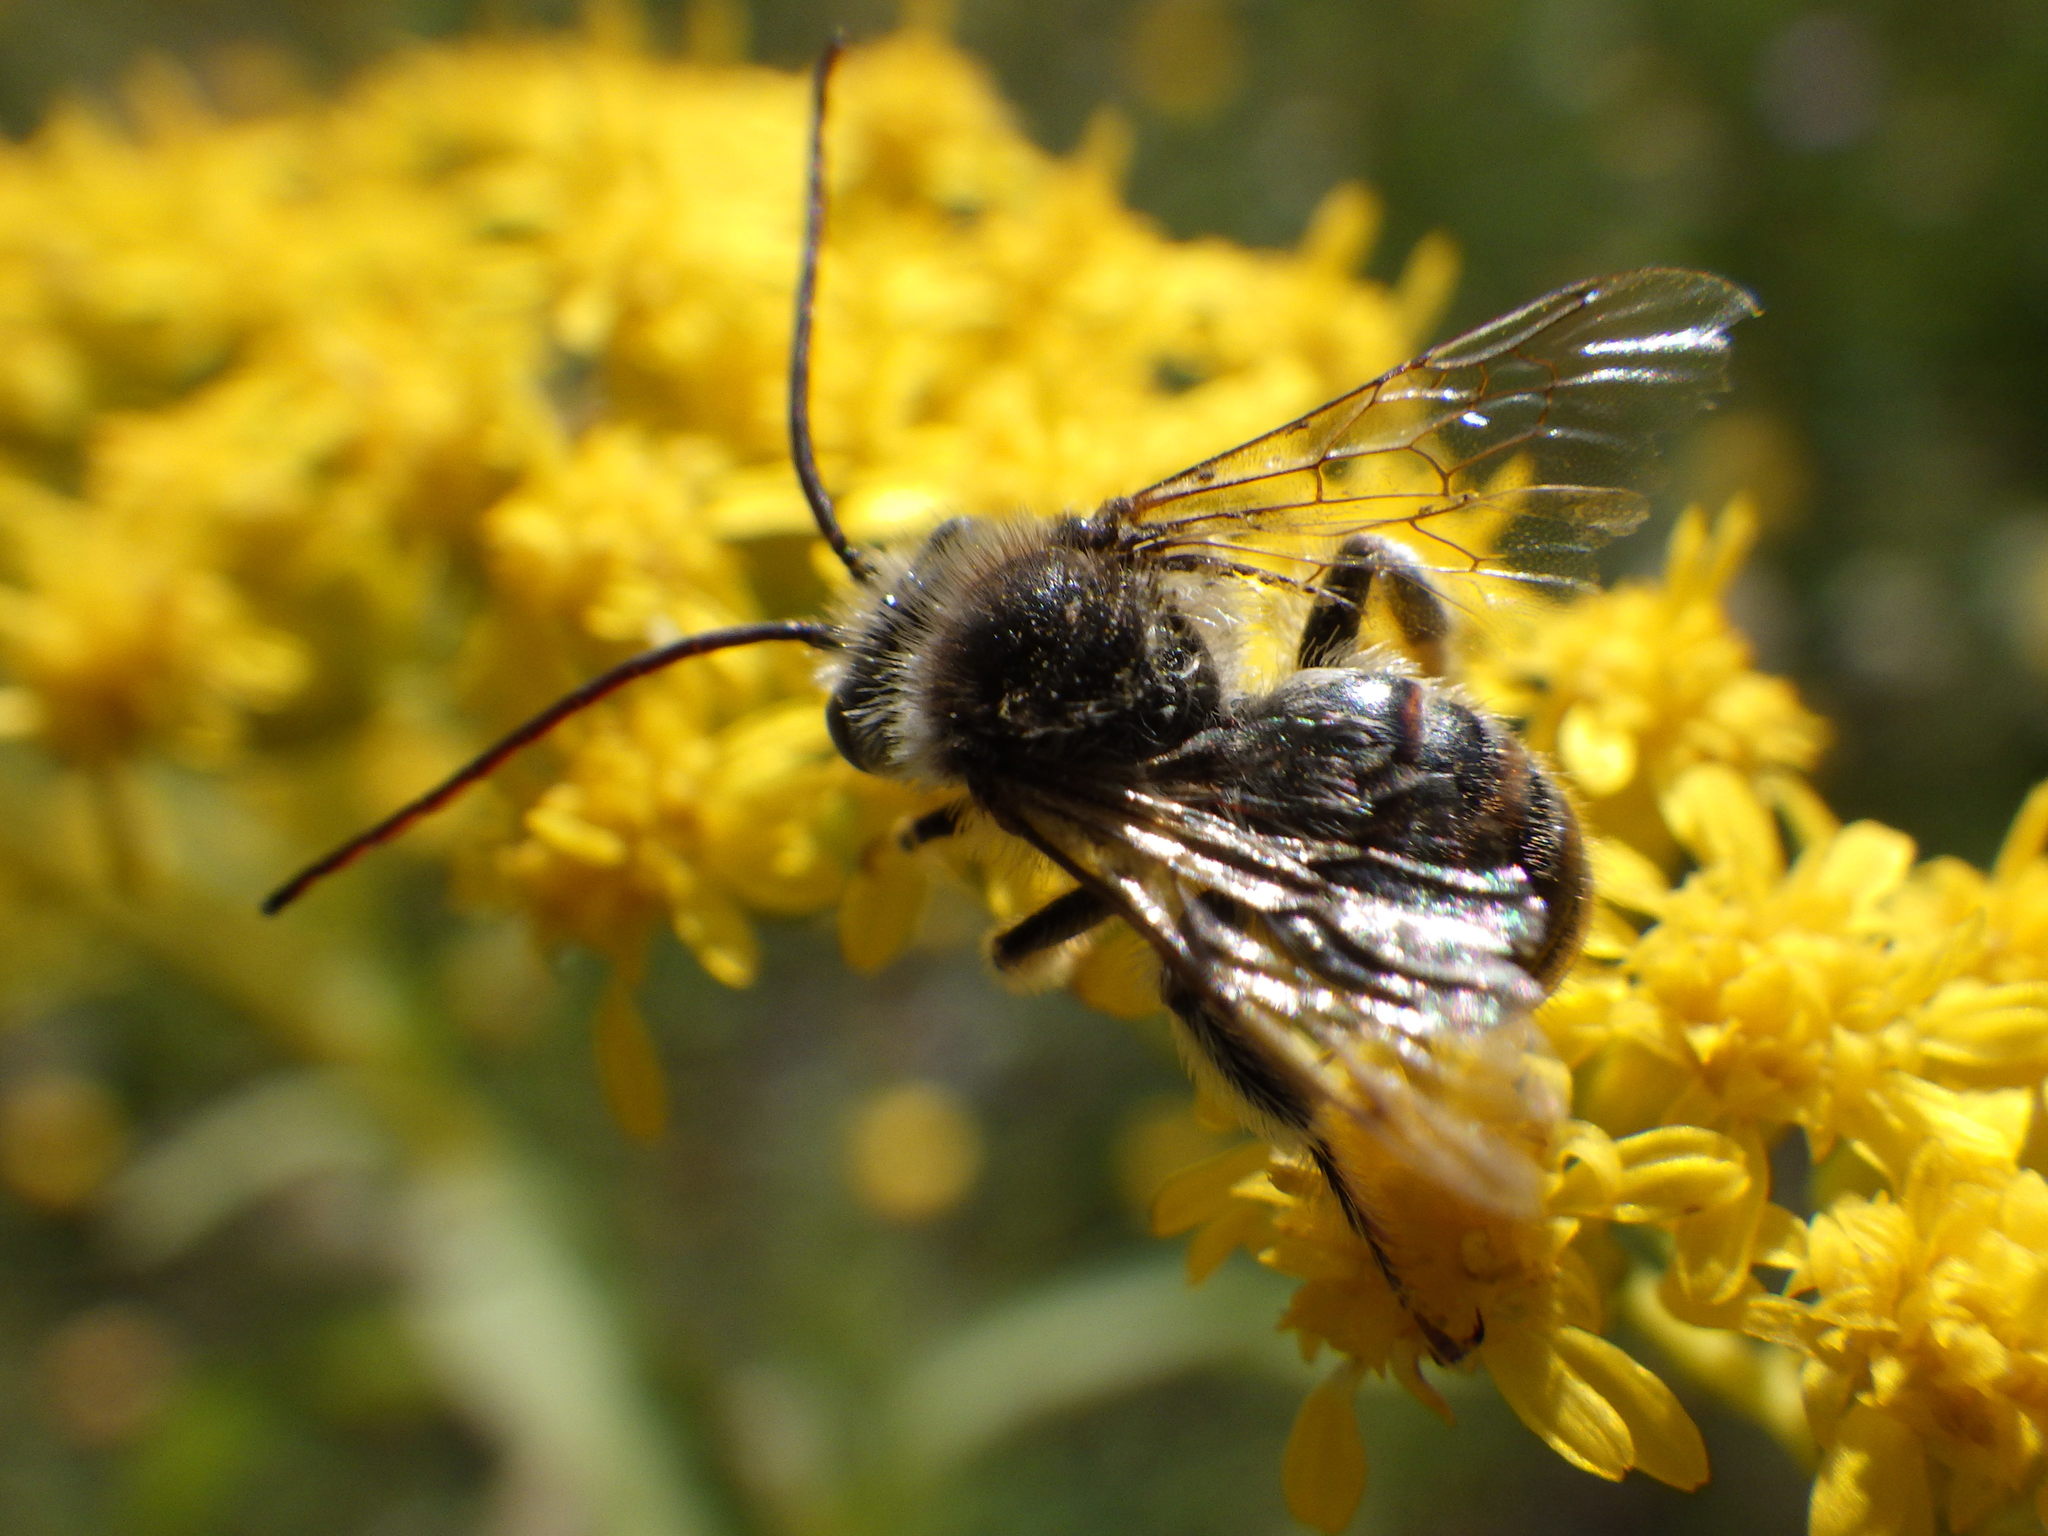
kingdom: Animalia
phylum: Arthropoda
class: Insecta
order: Hymenoptera
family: Apidae
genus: Melissodes
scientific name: Melissodes illatus
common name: Valiant long-horned bee
